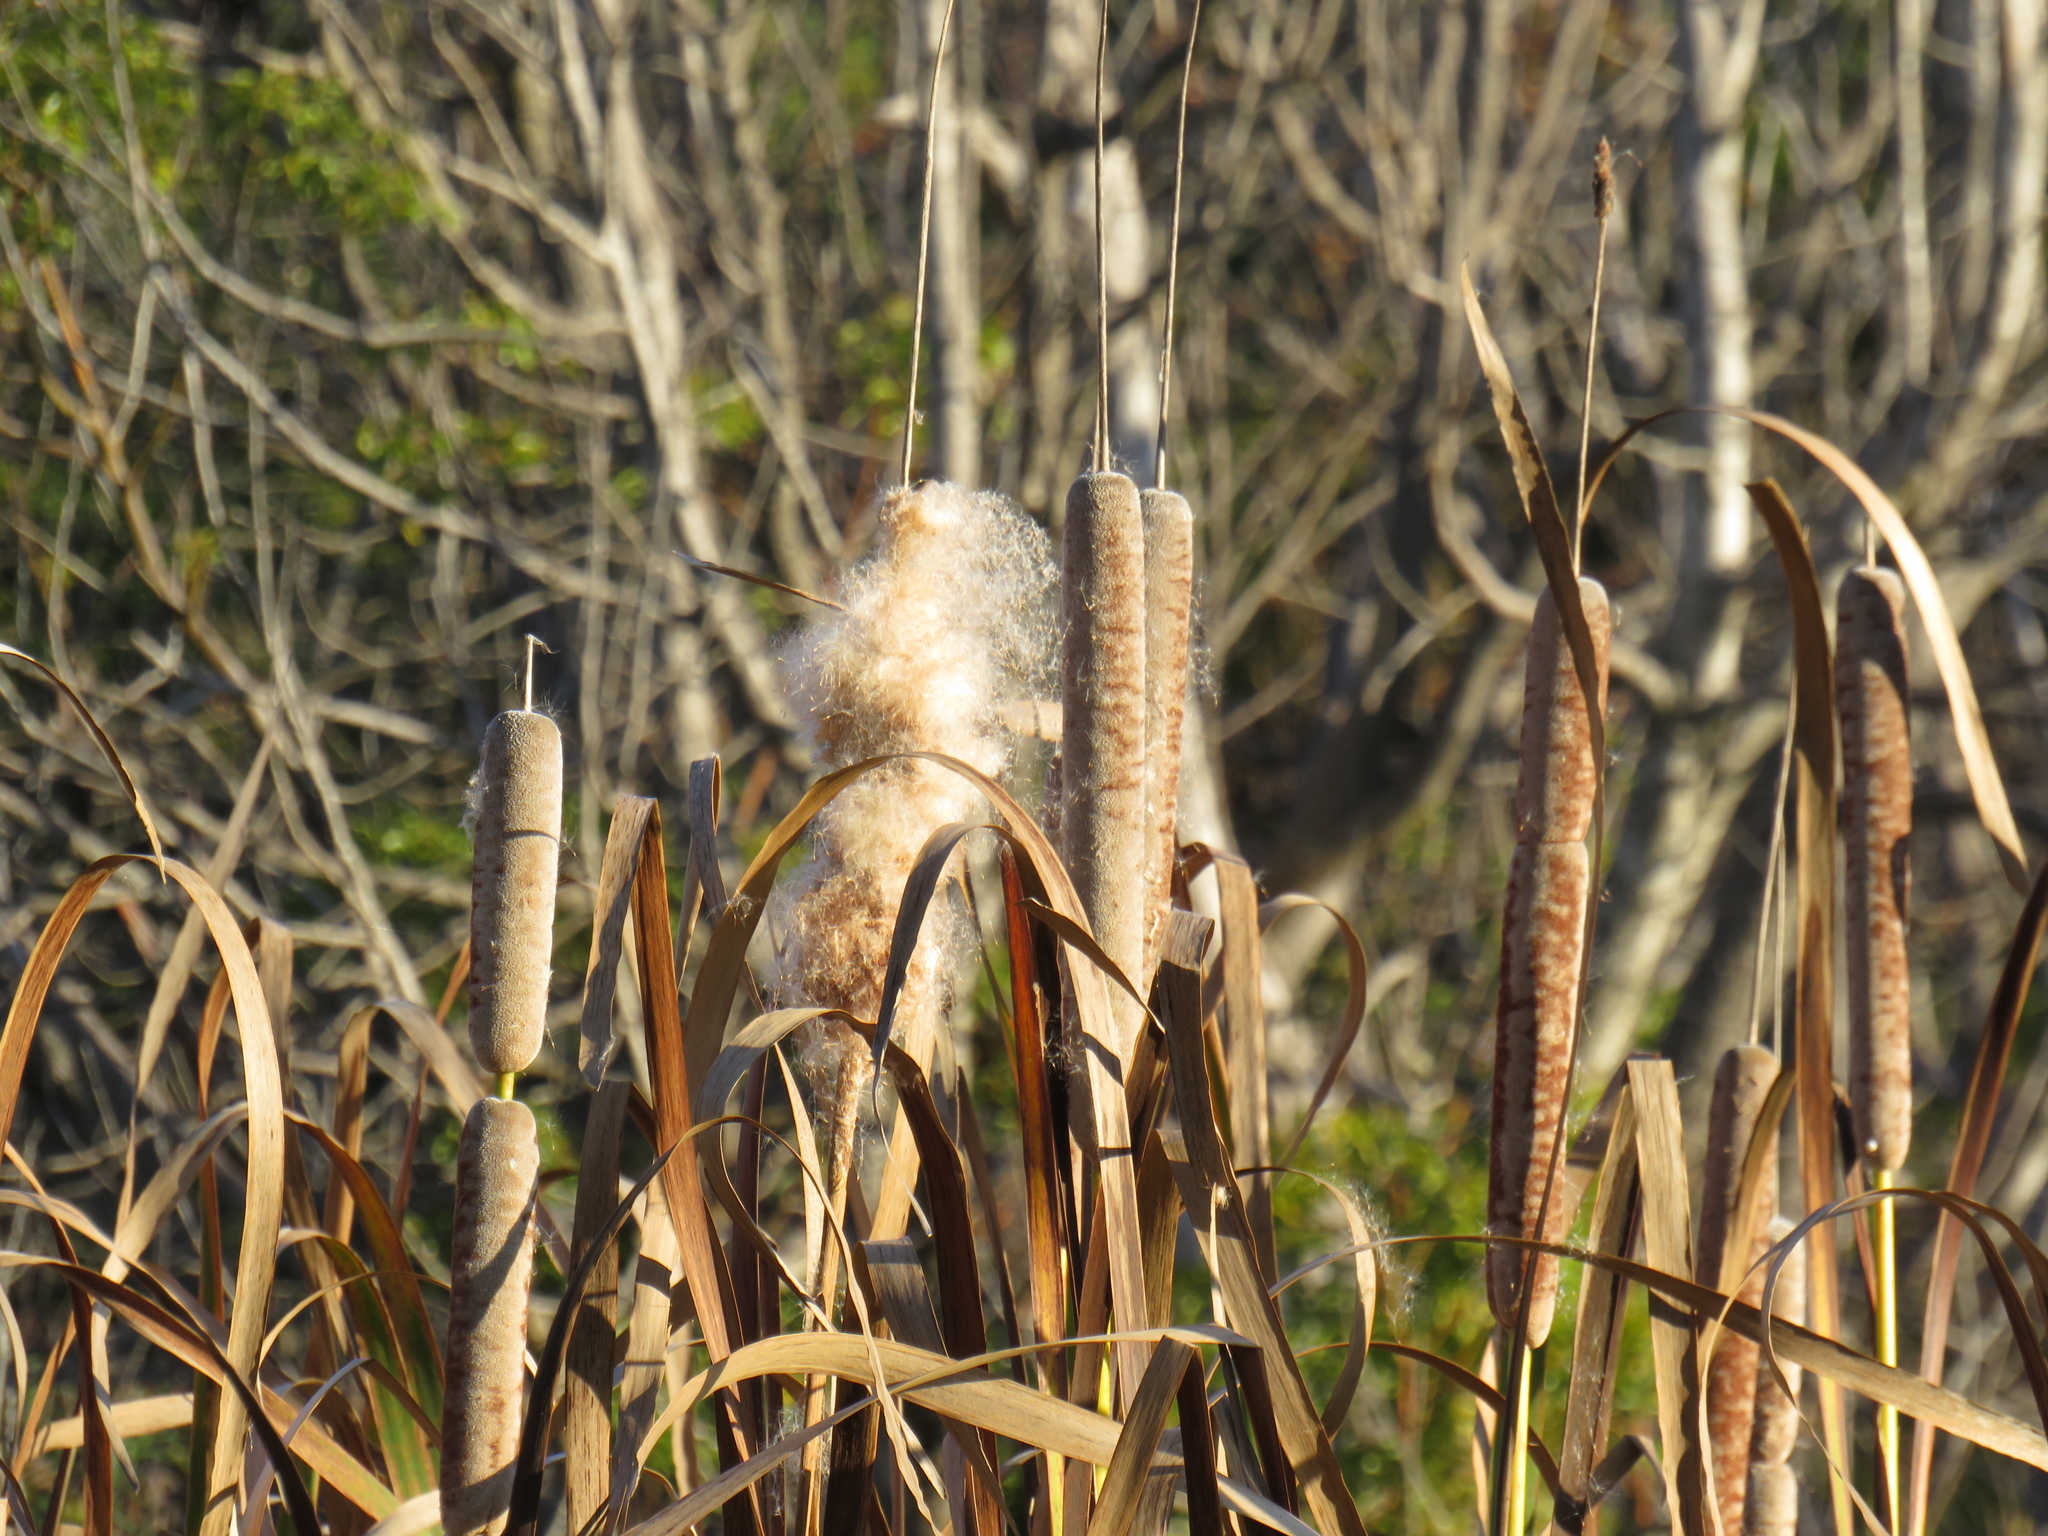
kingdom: Plantae
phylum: Tracheophyta
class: Liliopsida
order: Poales
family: Typhaceae
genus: Typha
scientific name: Typha capensis
